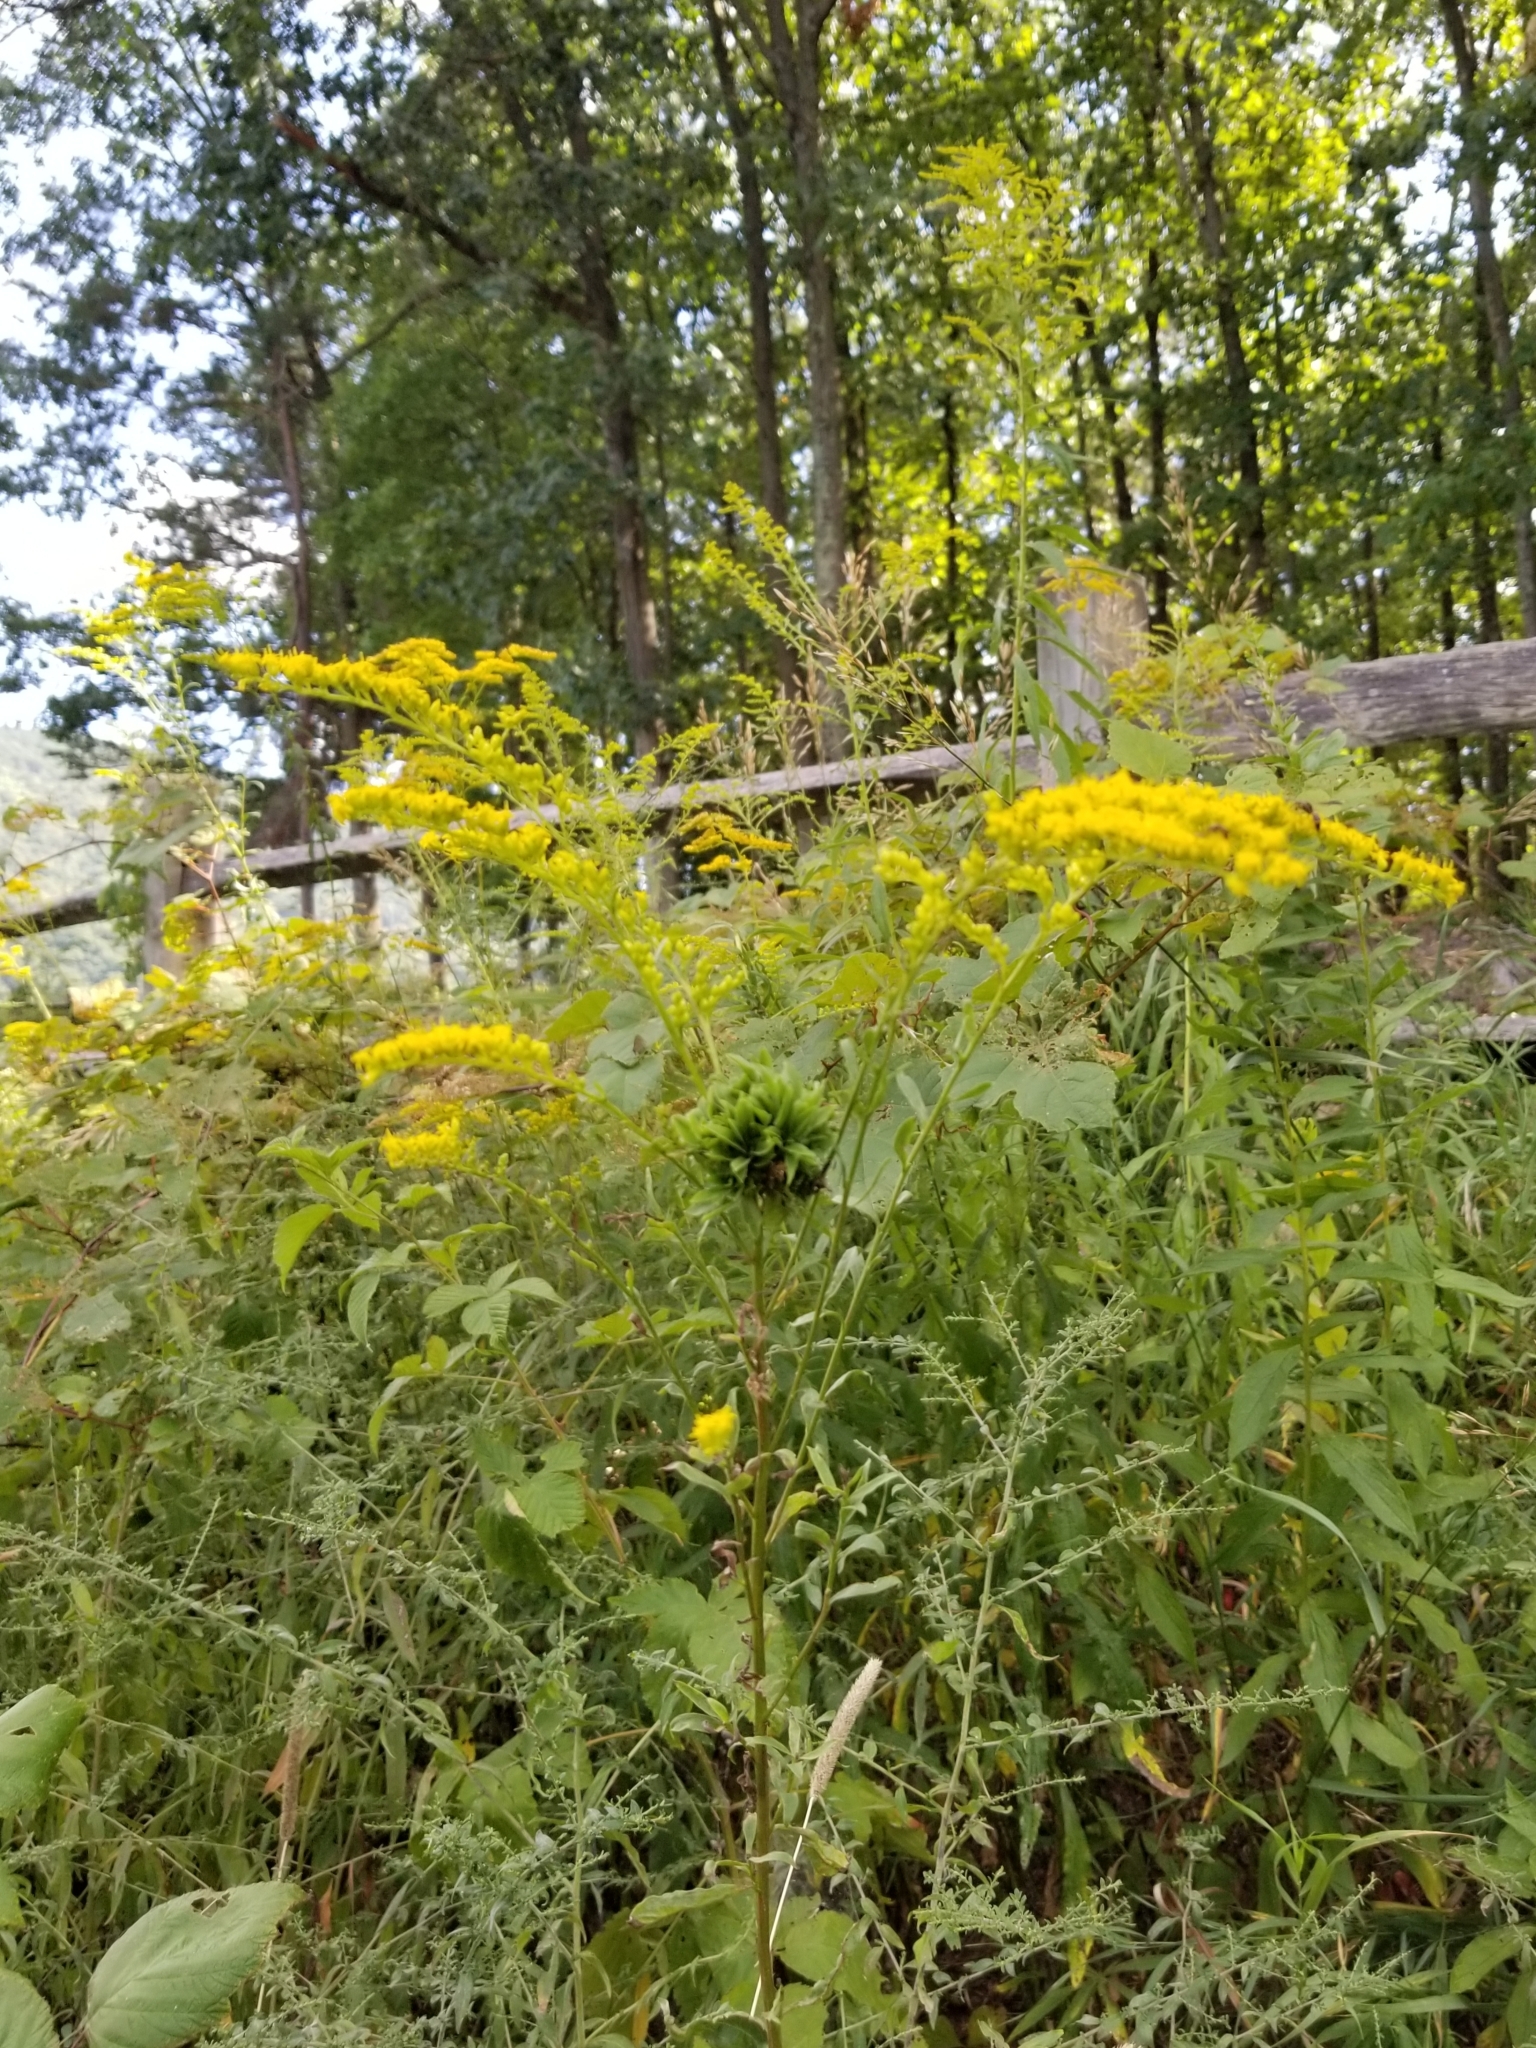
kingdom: Animalia
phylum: Arthropoda
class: Insecta
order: Diptera
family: Cecidomyiidae
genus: Asphondylia
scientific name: Asphondylia monacha
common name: Nun midge
